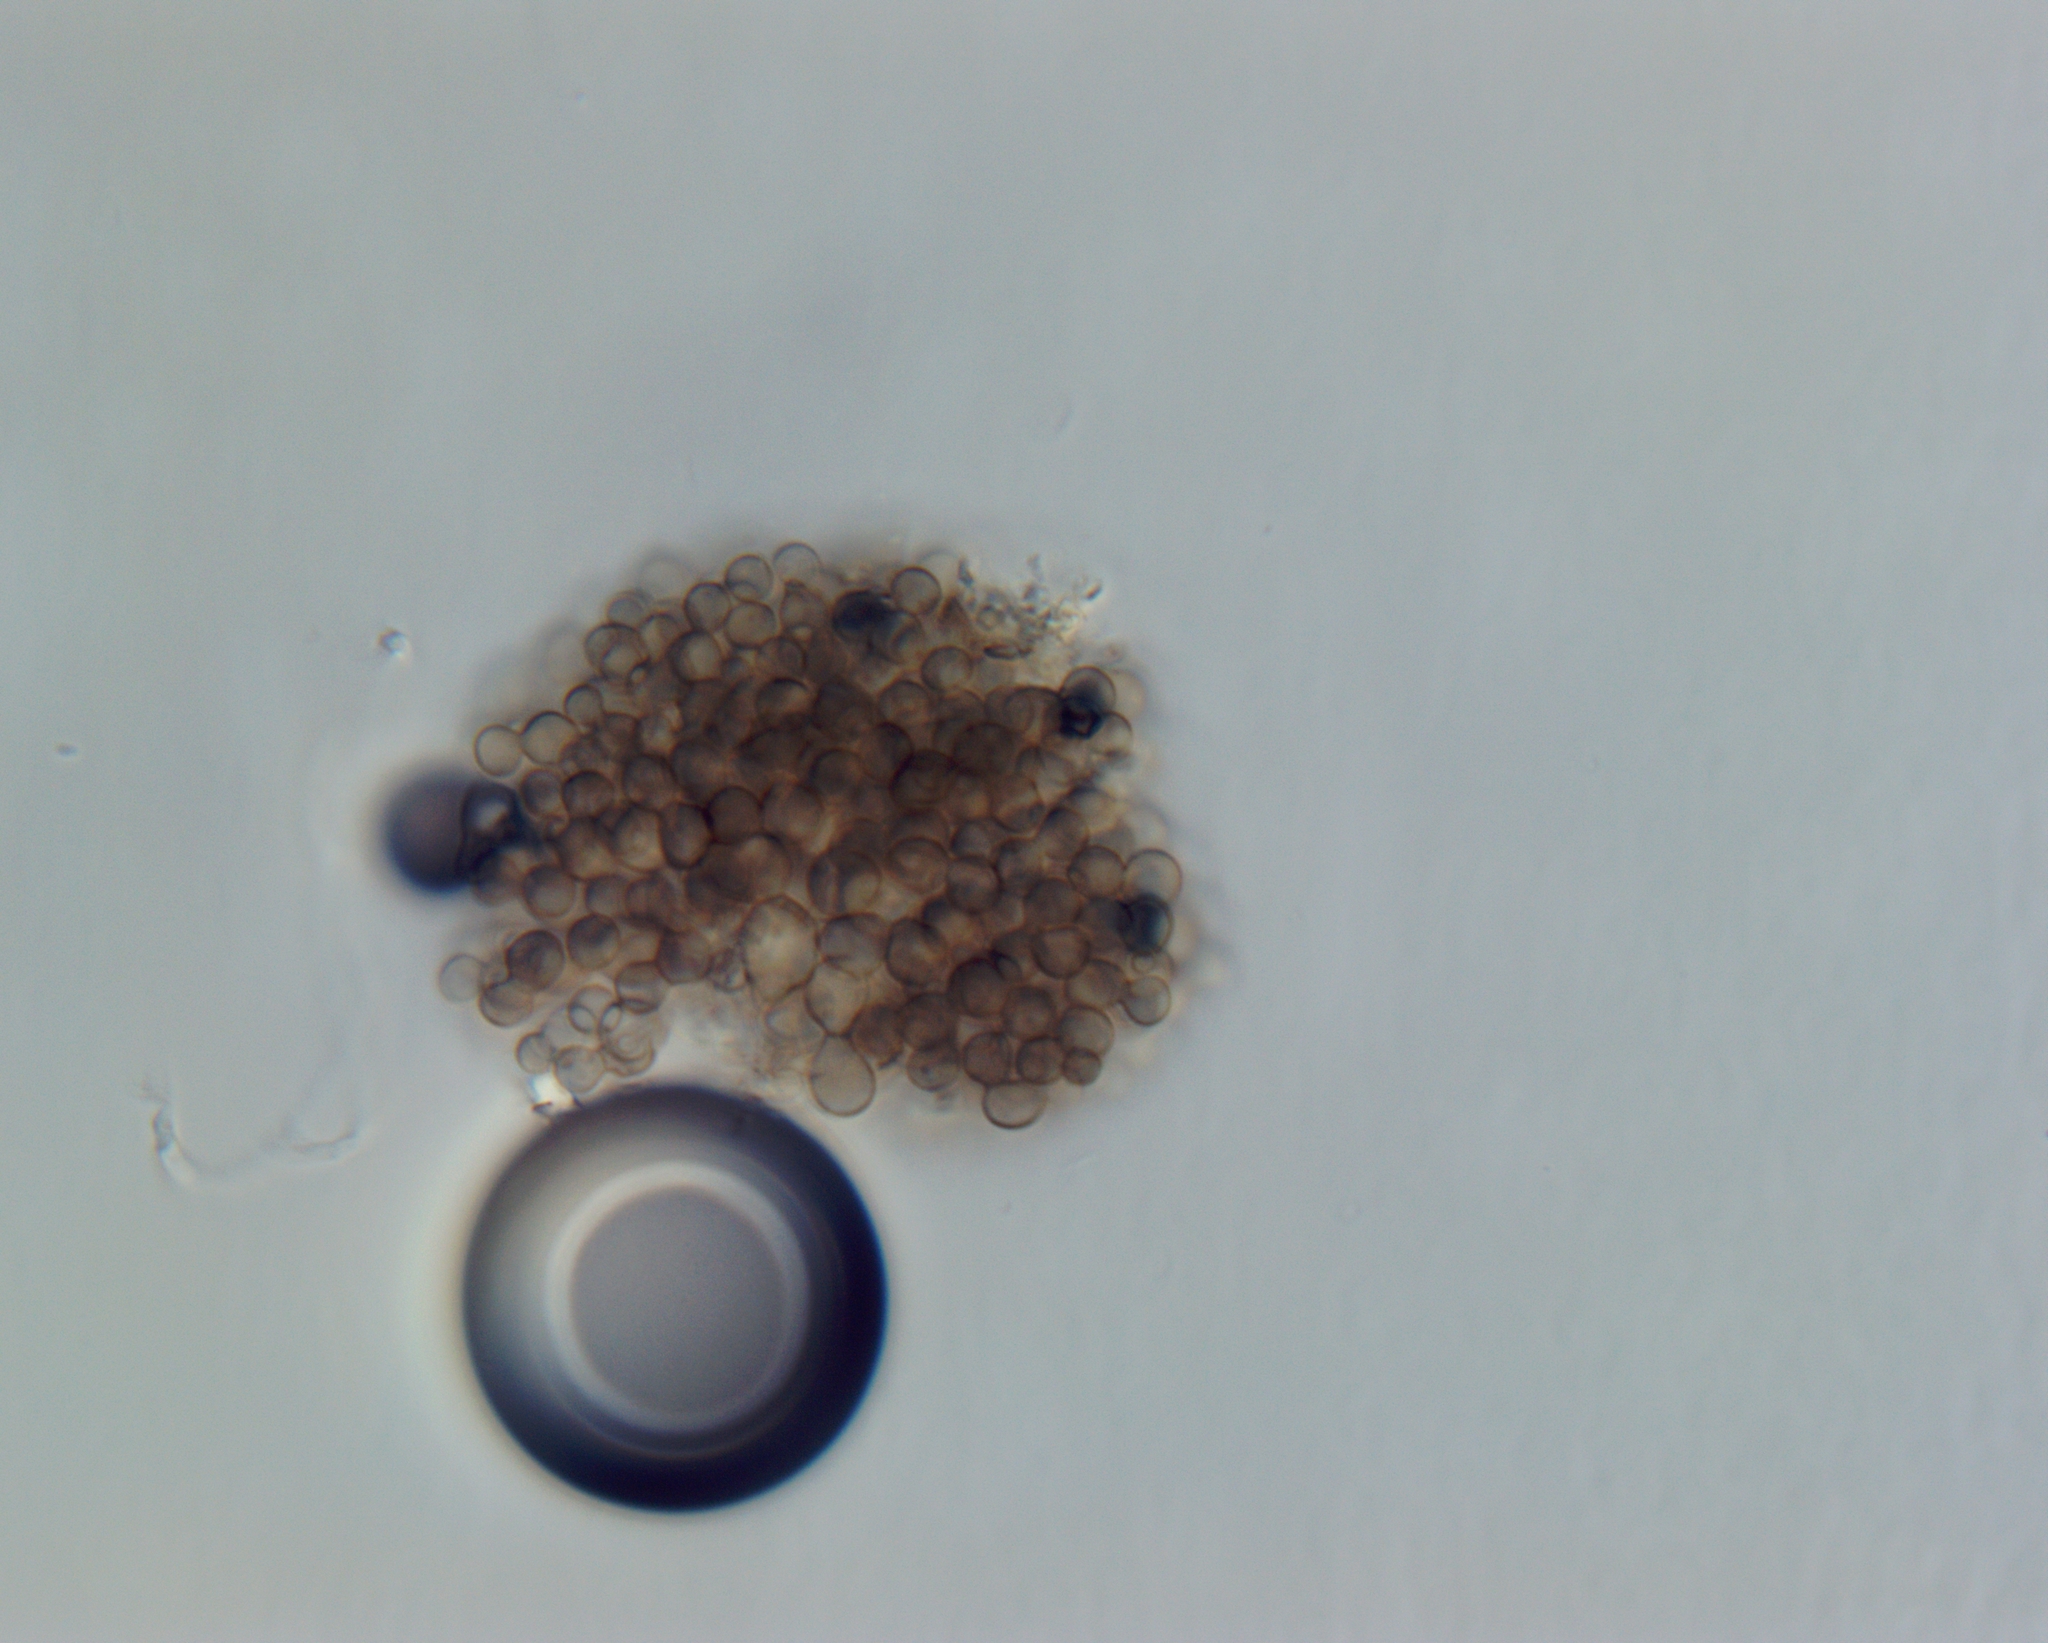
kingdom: Fungi
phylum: Ascomycota
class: Leotiomycetes
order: Helotiales
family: Hyaloscyphaceae
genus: Hyaloscypha
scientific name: Hyaloscypha leucostigma
